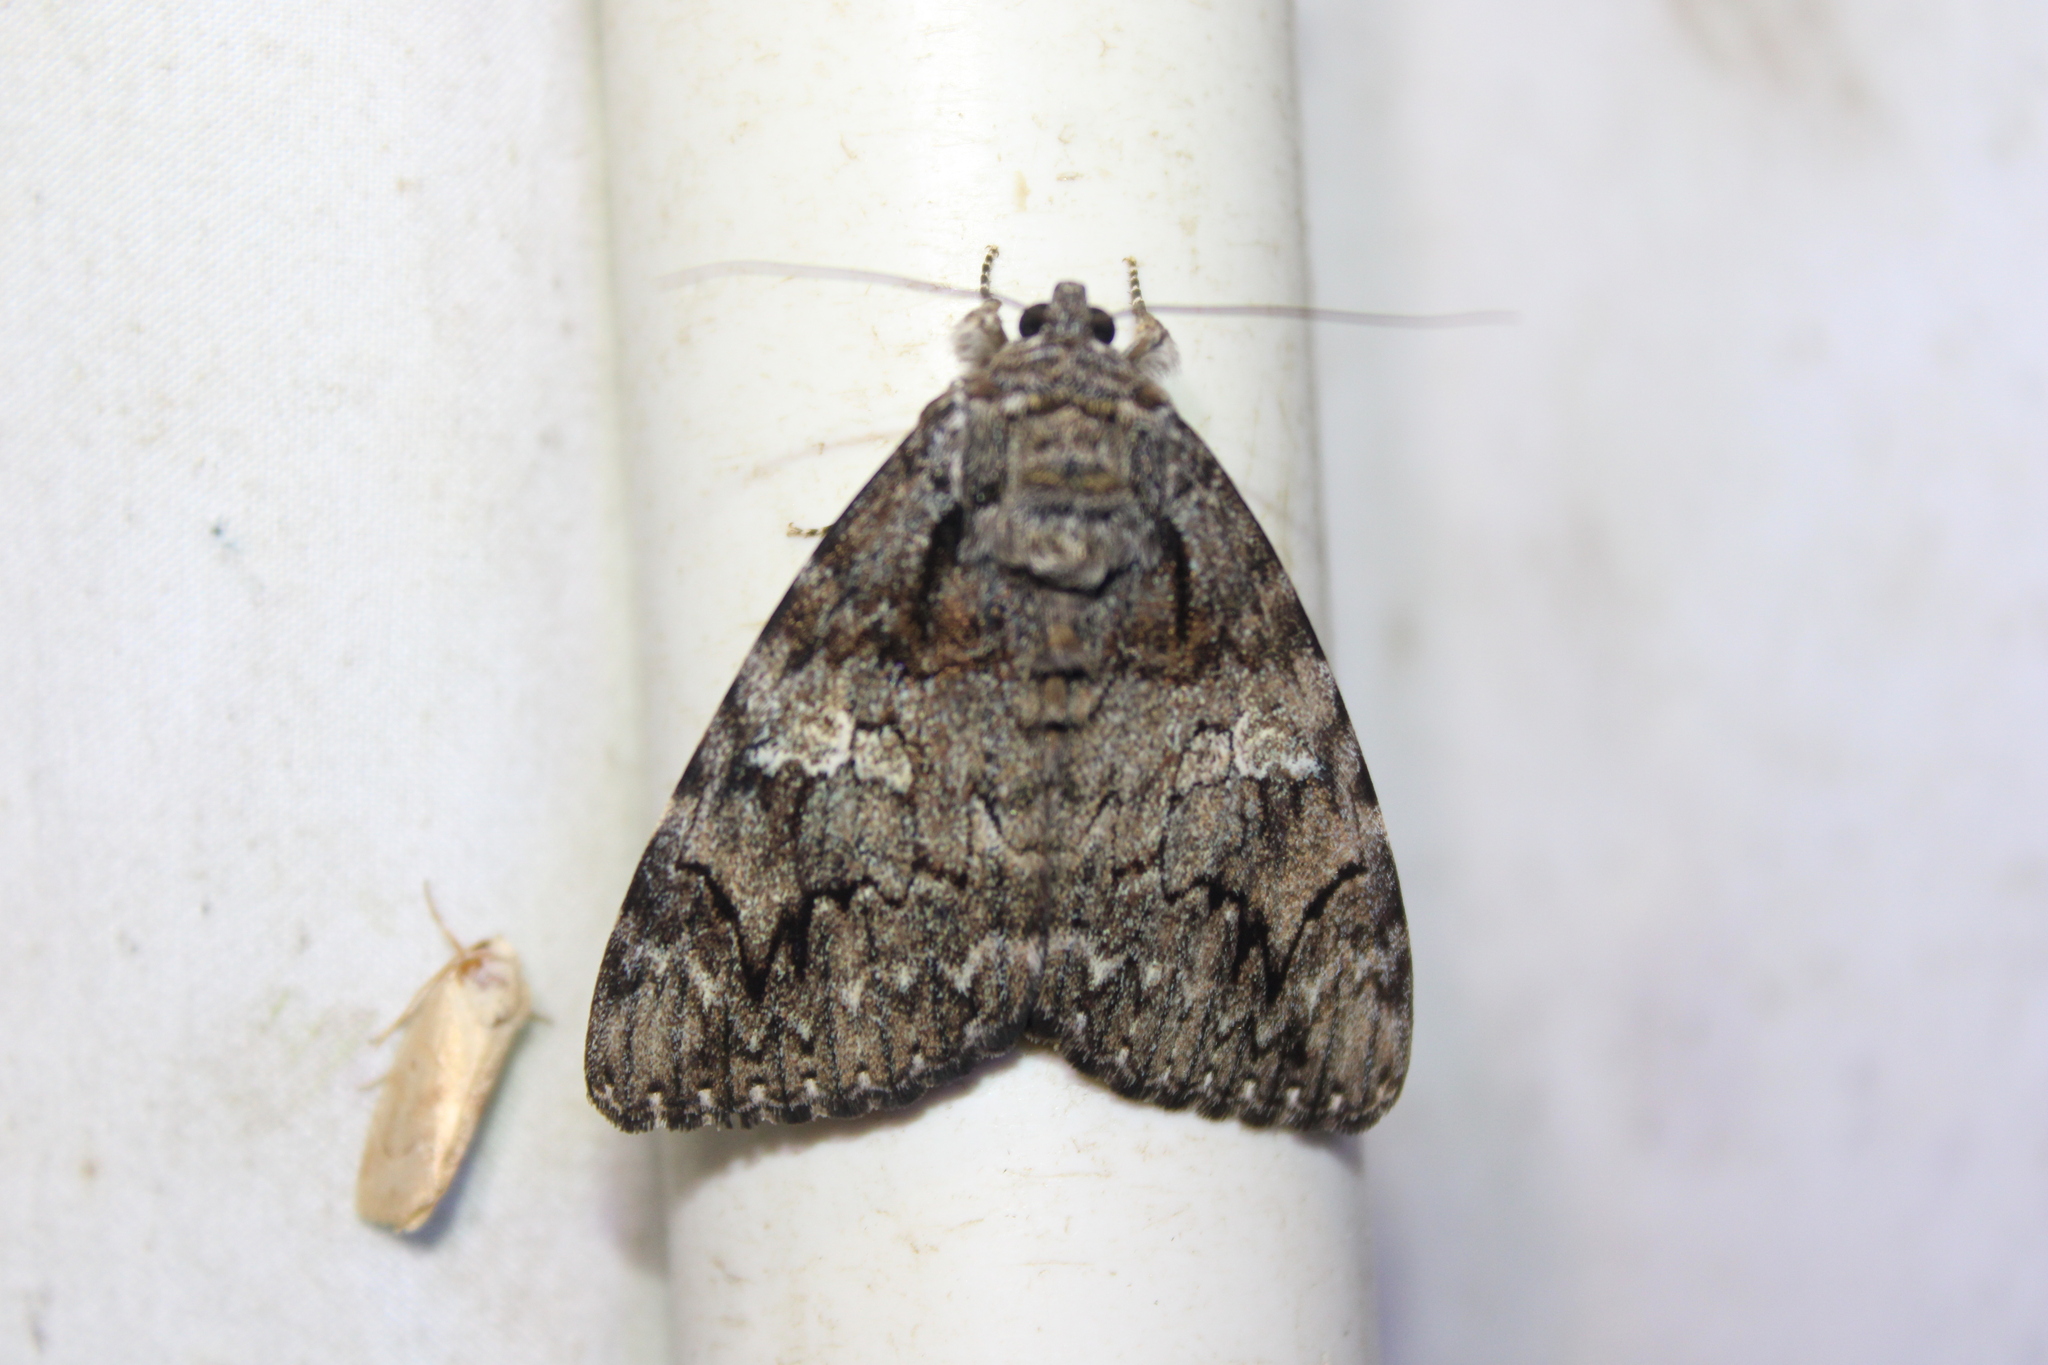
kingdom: Animalia
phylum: Arthropoda
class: Insecta
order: Lepidoptera
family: Erebidae
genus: Catocala
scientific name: Catocala ilia
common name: Ilia underwing
